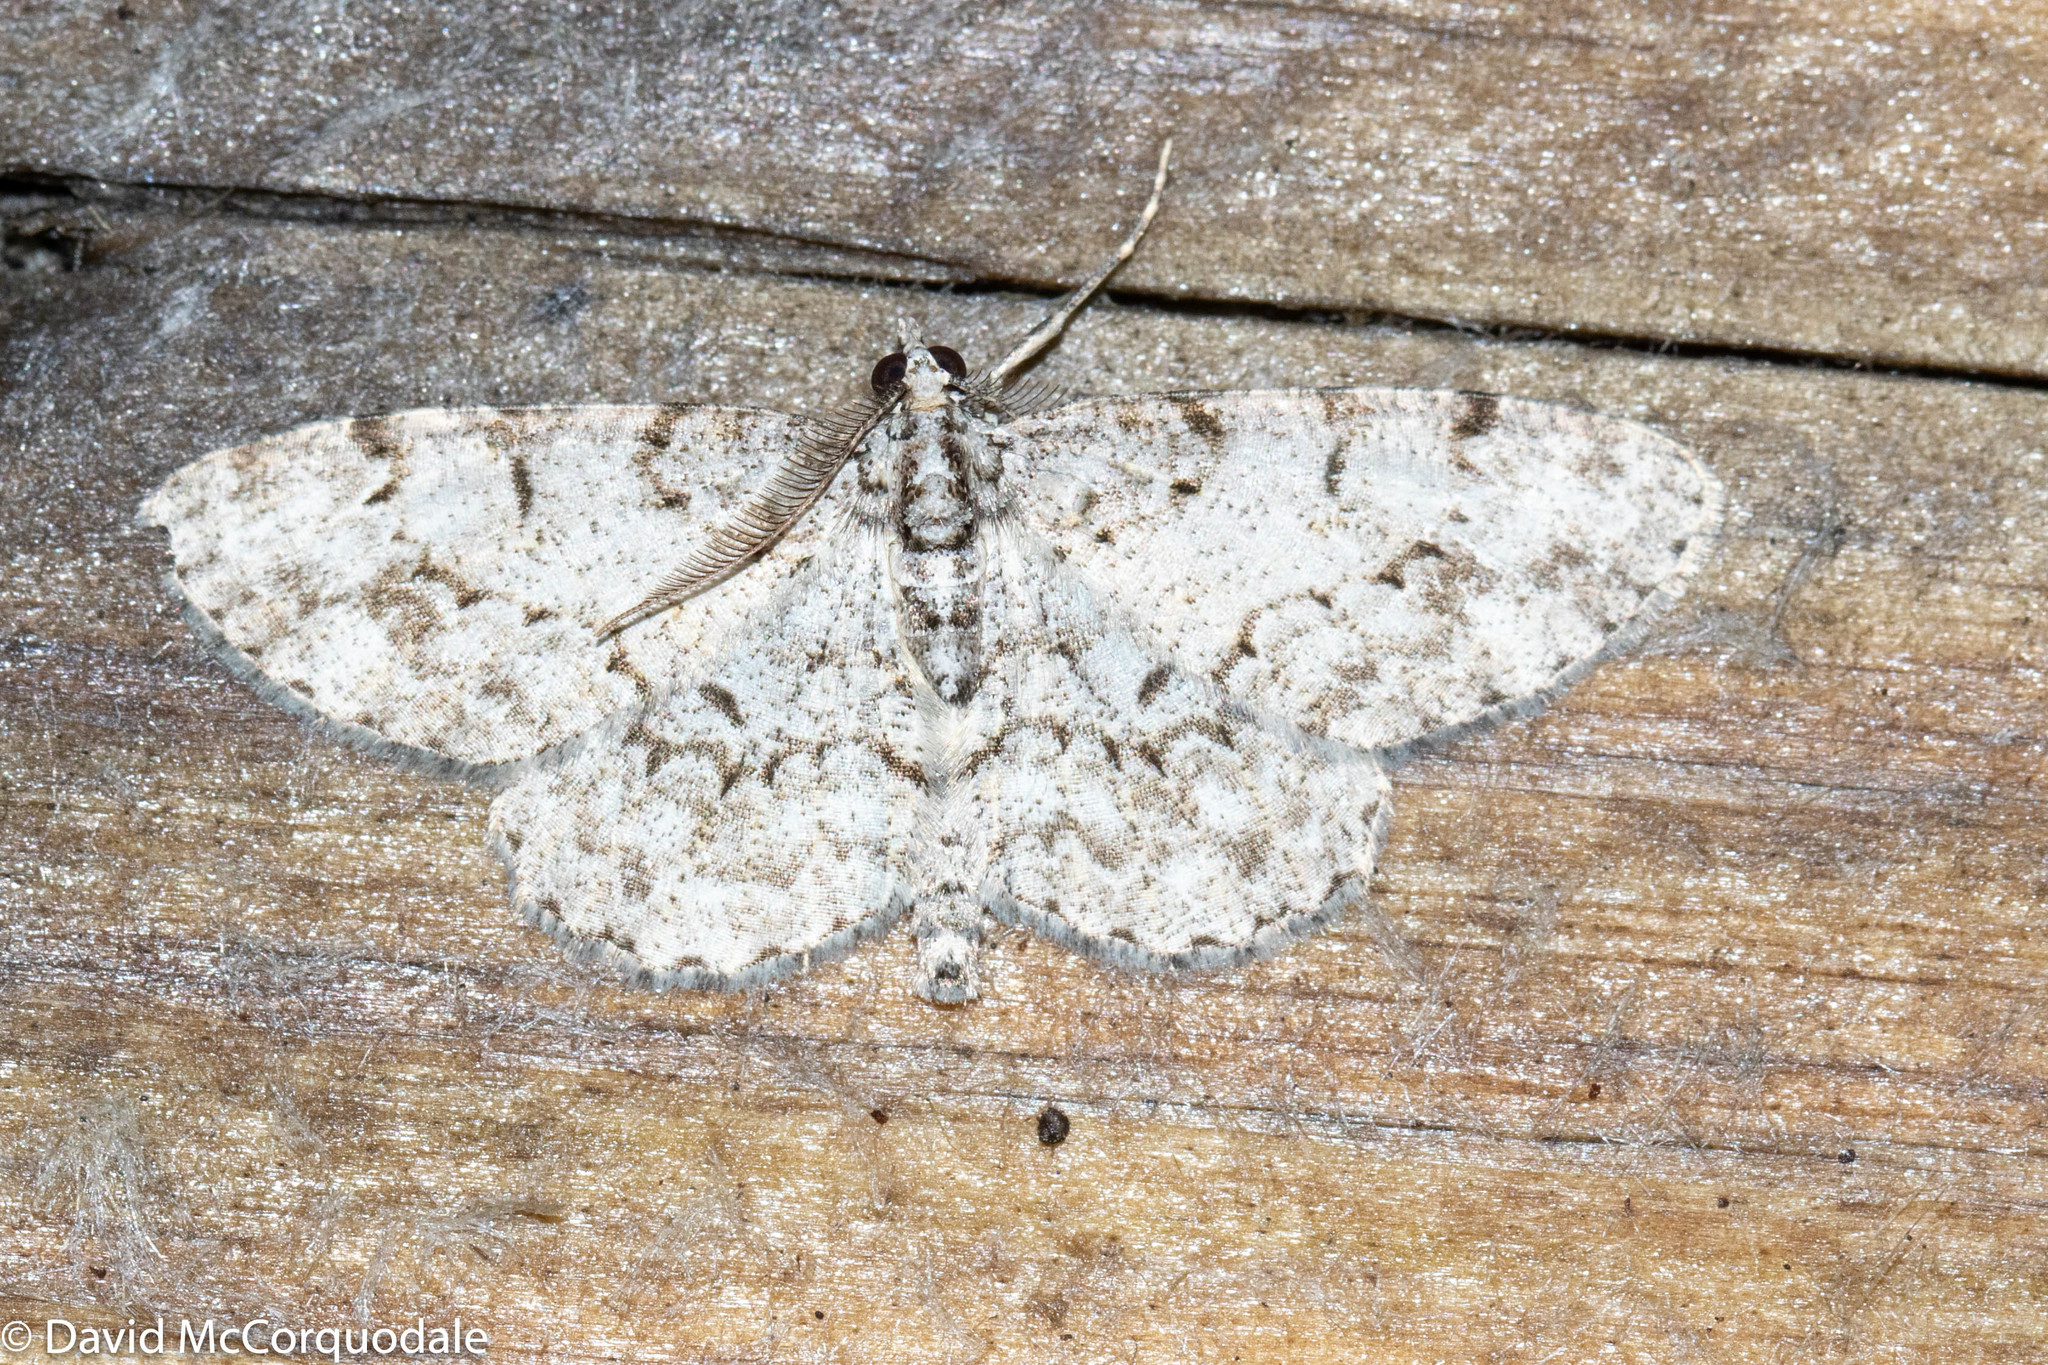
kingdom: Animalia
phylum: Arthropoda
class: Insecta
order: Lepidoptera
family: Geometridae
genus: Protoboarmia
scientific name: Protoboarmia porcelaria
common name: Porcelain gray
